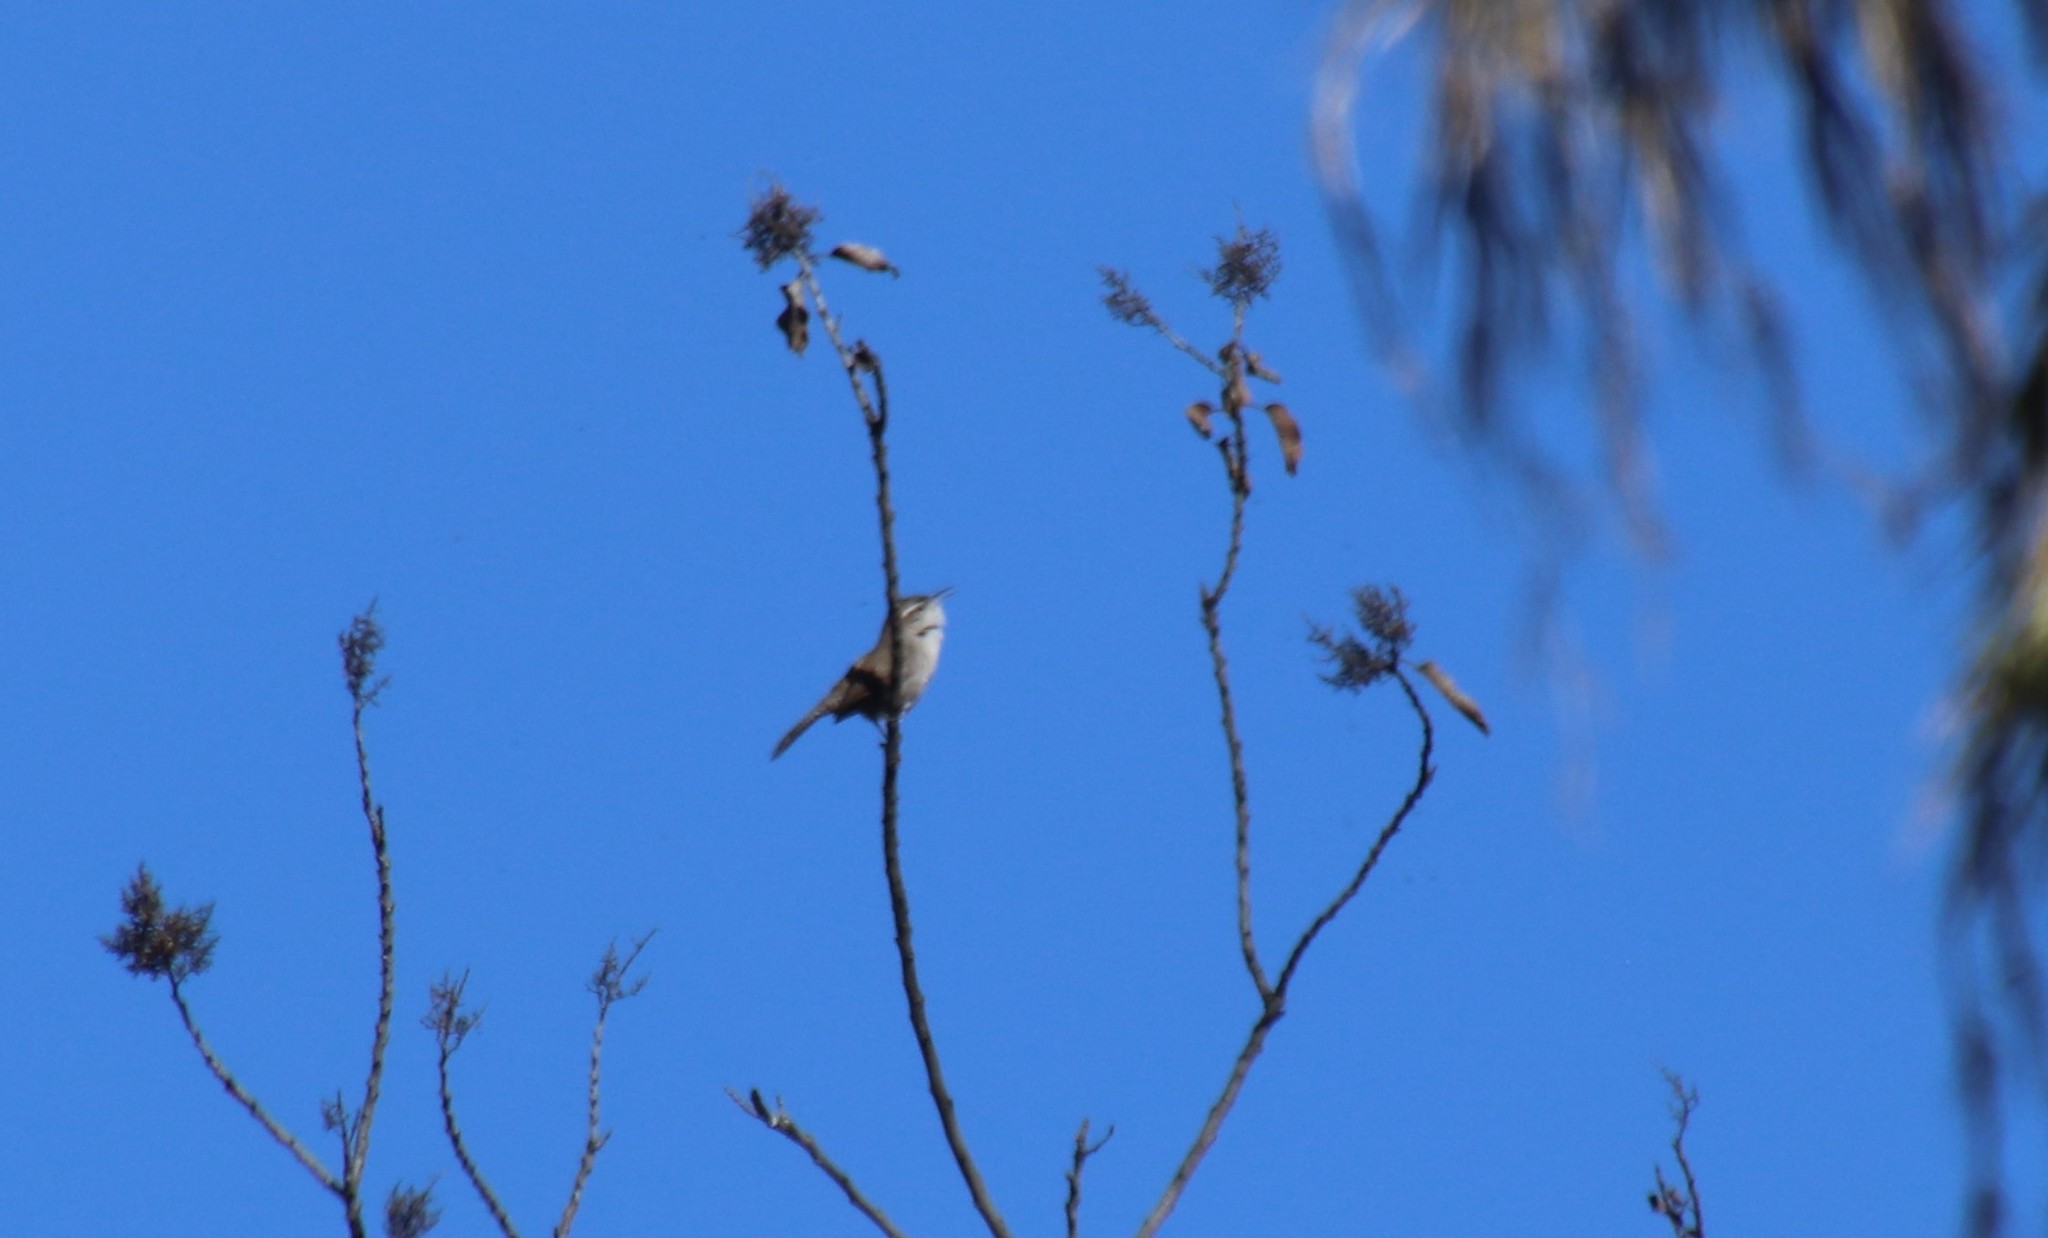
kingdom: Animalia
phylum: Chordata
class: Aves
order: Passeriformes
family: Troglodytidae
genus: Thryomanes
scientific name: Thryomanes bewickii
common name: Bewick's wren
